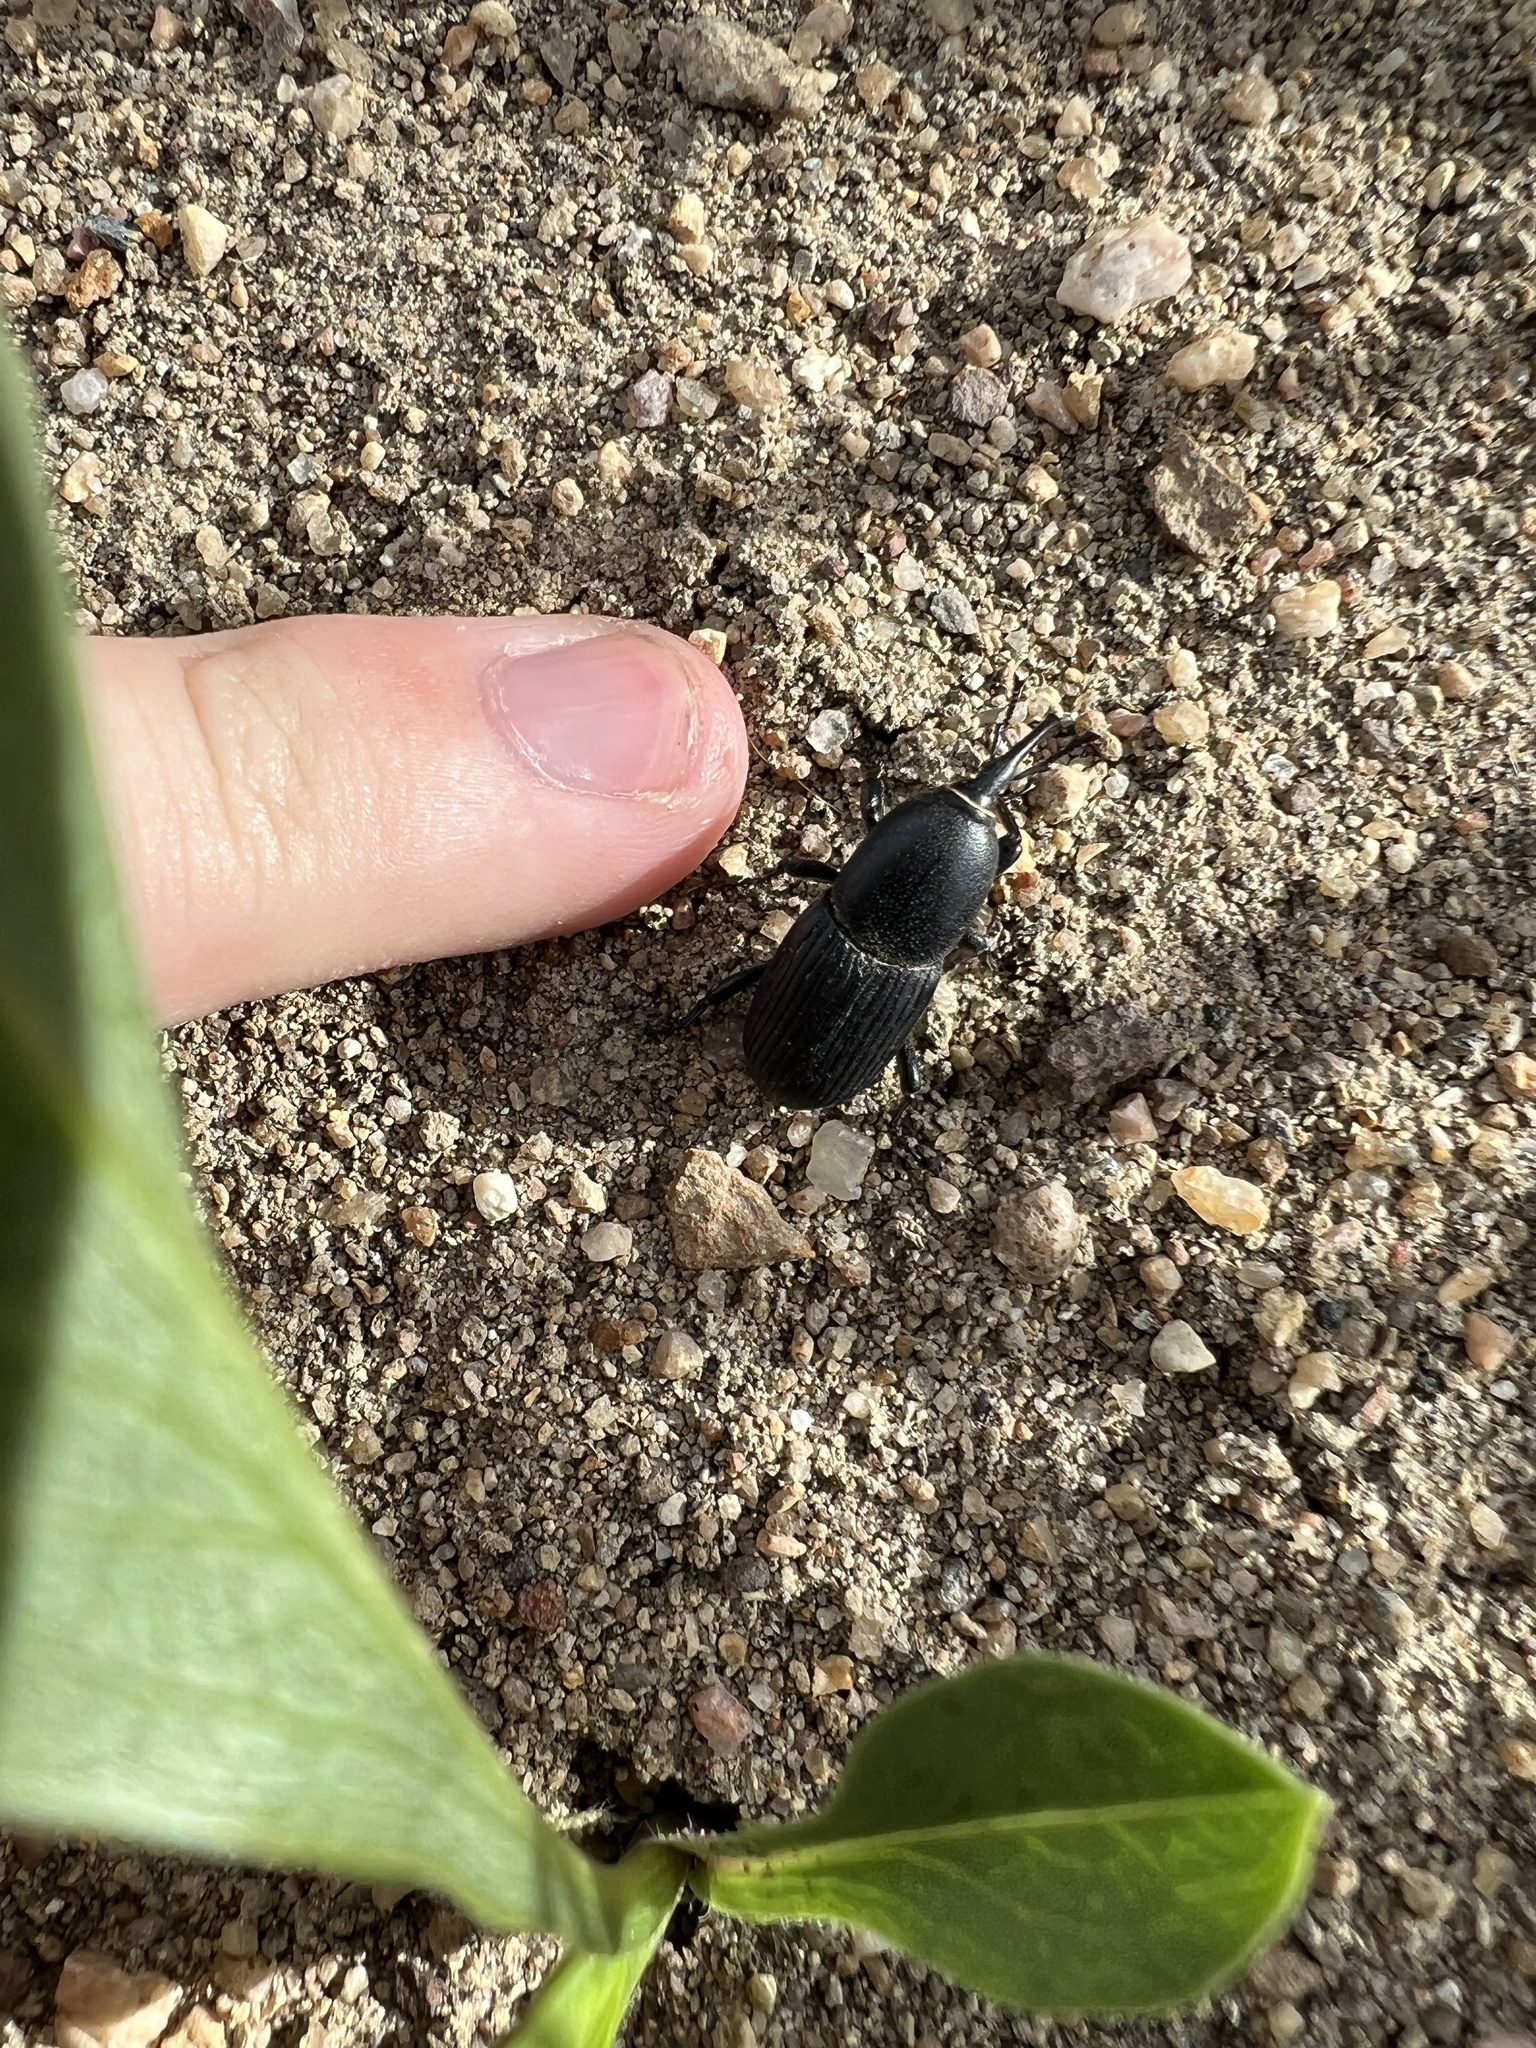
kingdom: Animalia
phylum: Arthropoda
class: Insecta
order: Coleoptera
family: Dryophthoridae
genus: Scyphophorus
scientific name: Scyphophorus acupunctatus
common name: Weevil
